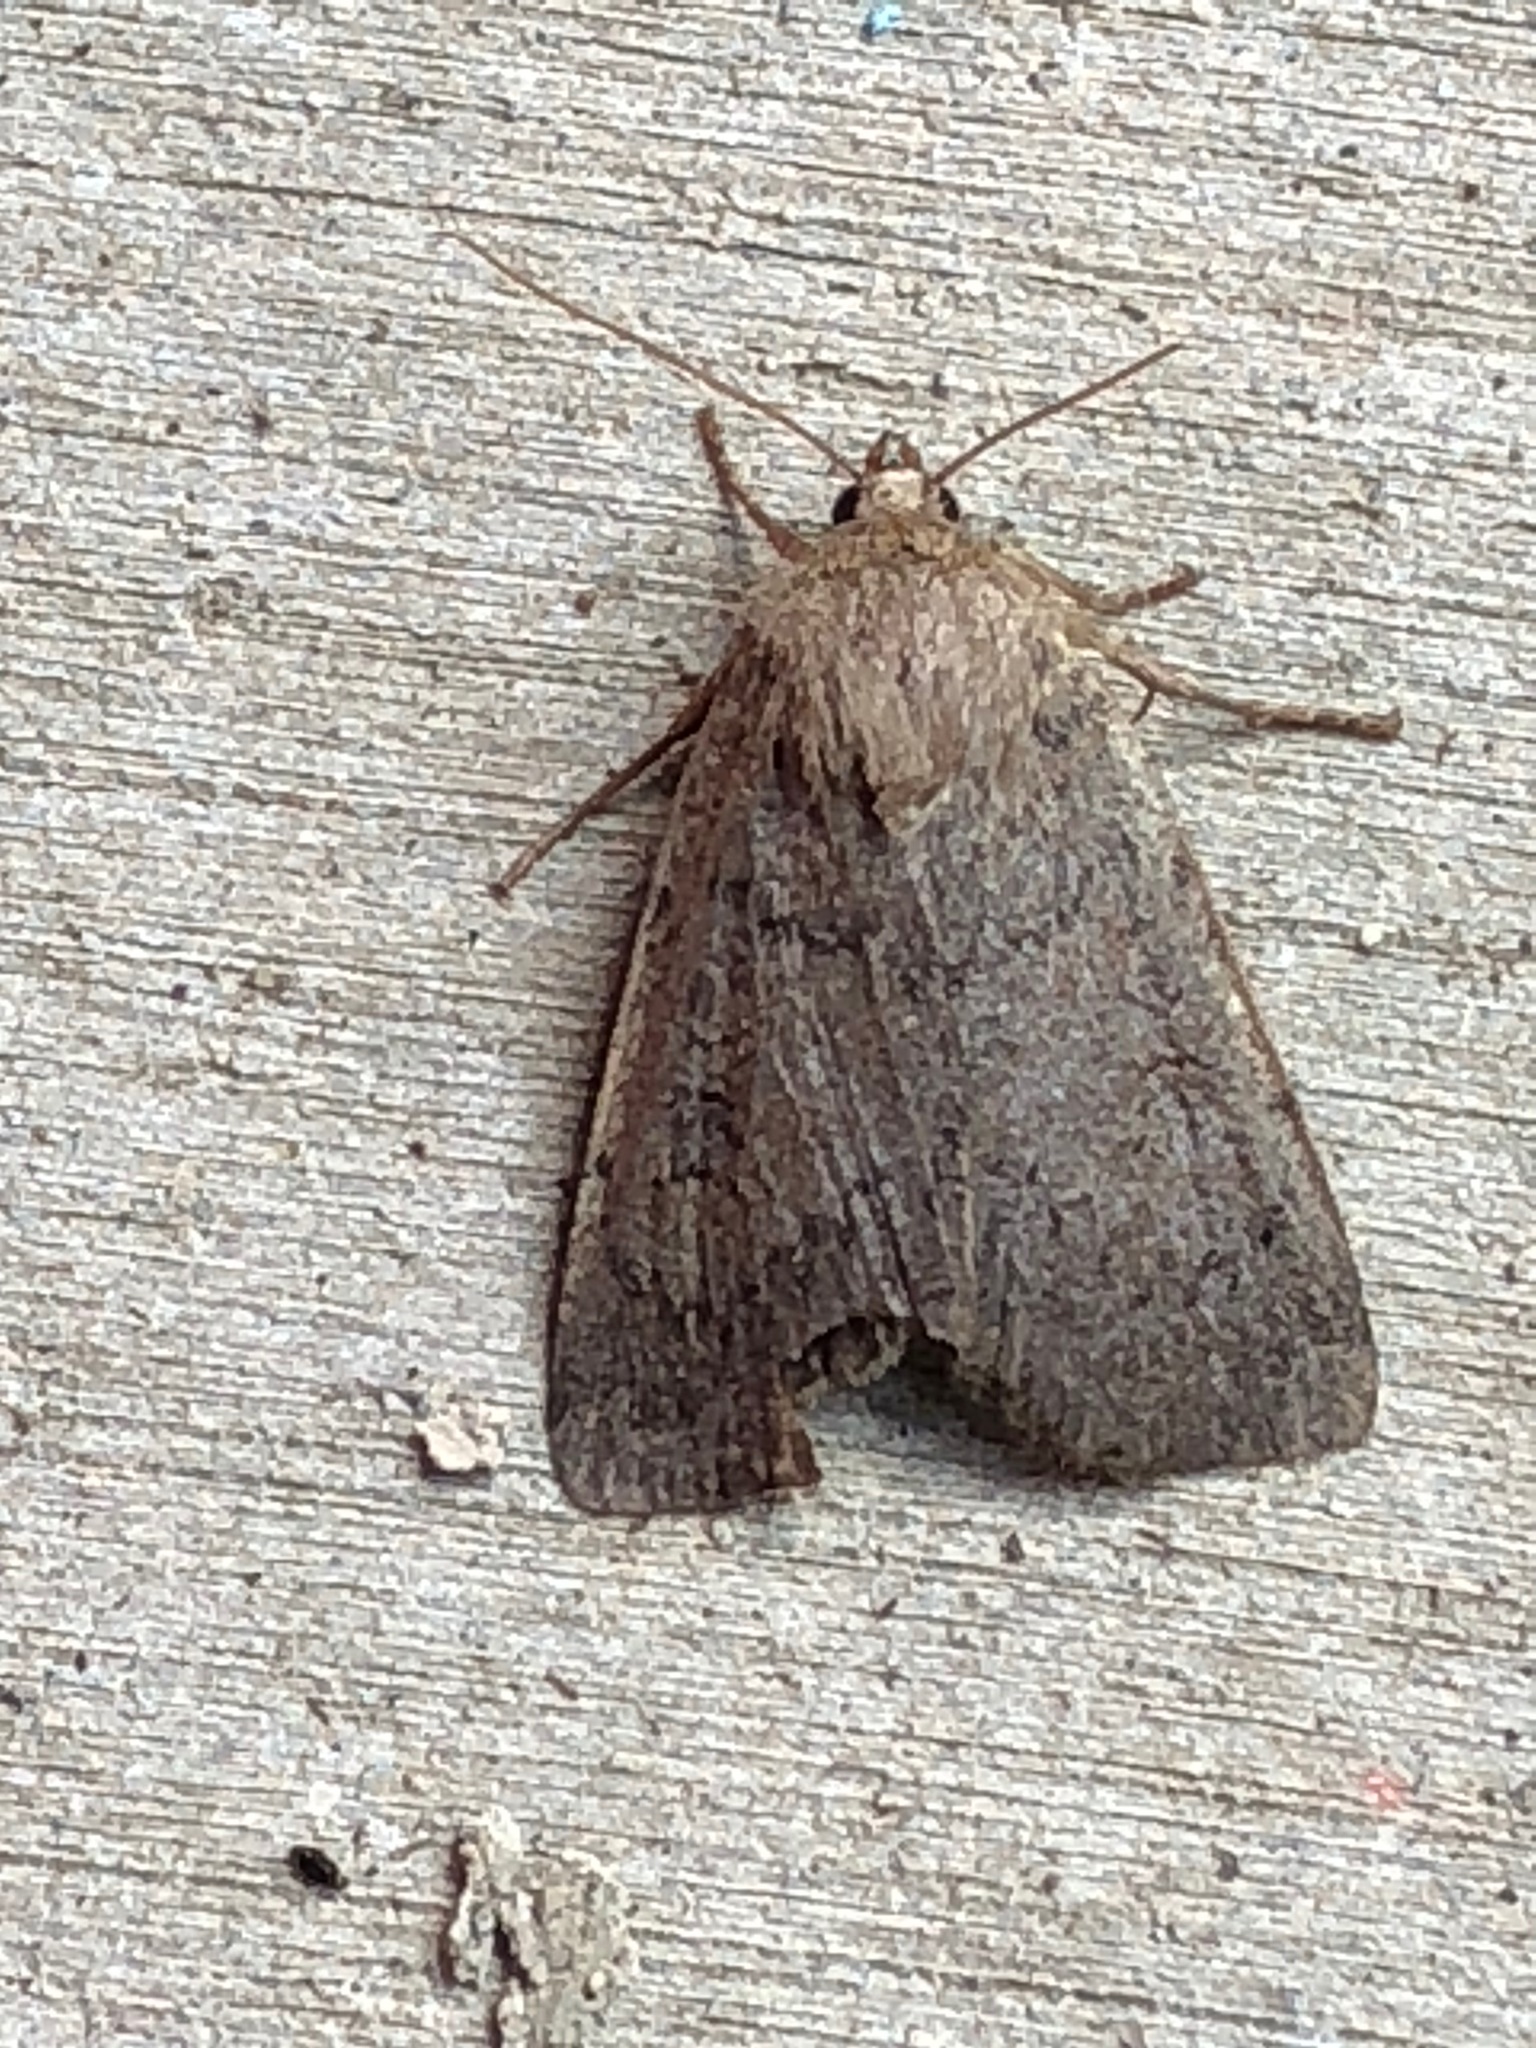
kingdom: Animalia
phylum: Arthropoda
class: Insecta
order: Lepidoptera
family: Noctuidae
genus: Graphiphora
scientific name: Graphiphora augur
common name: Double dart
